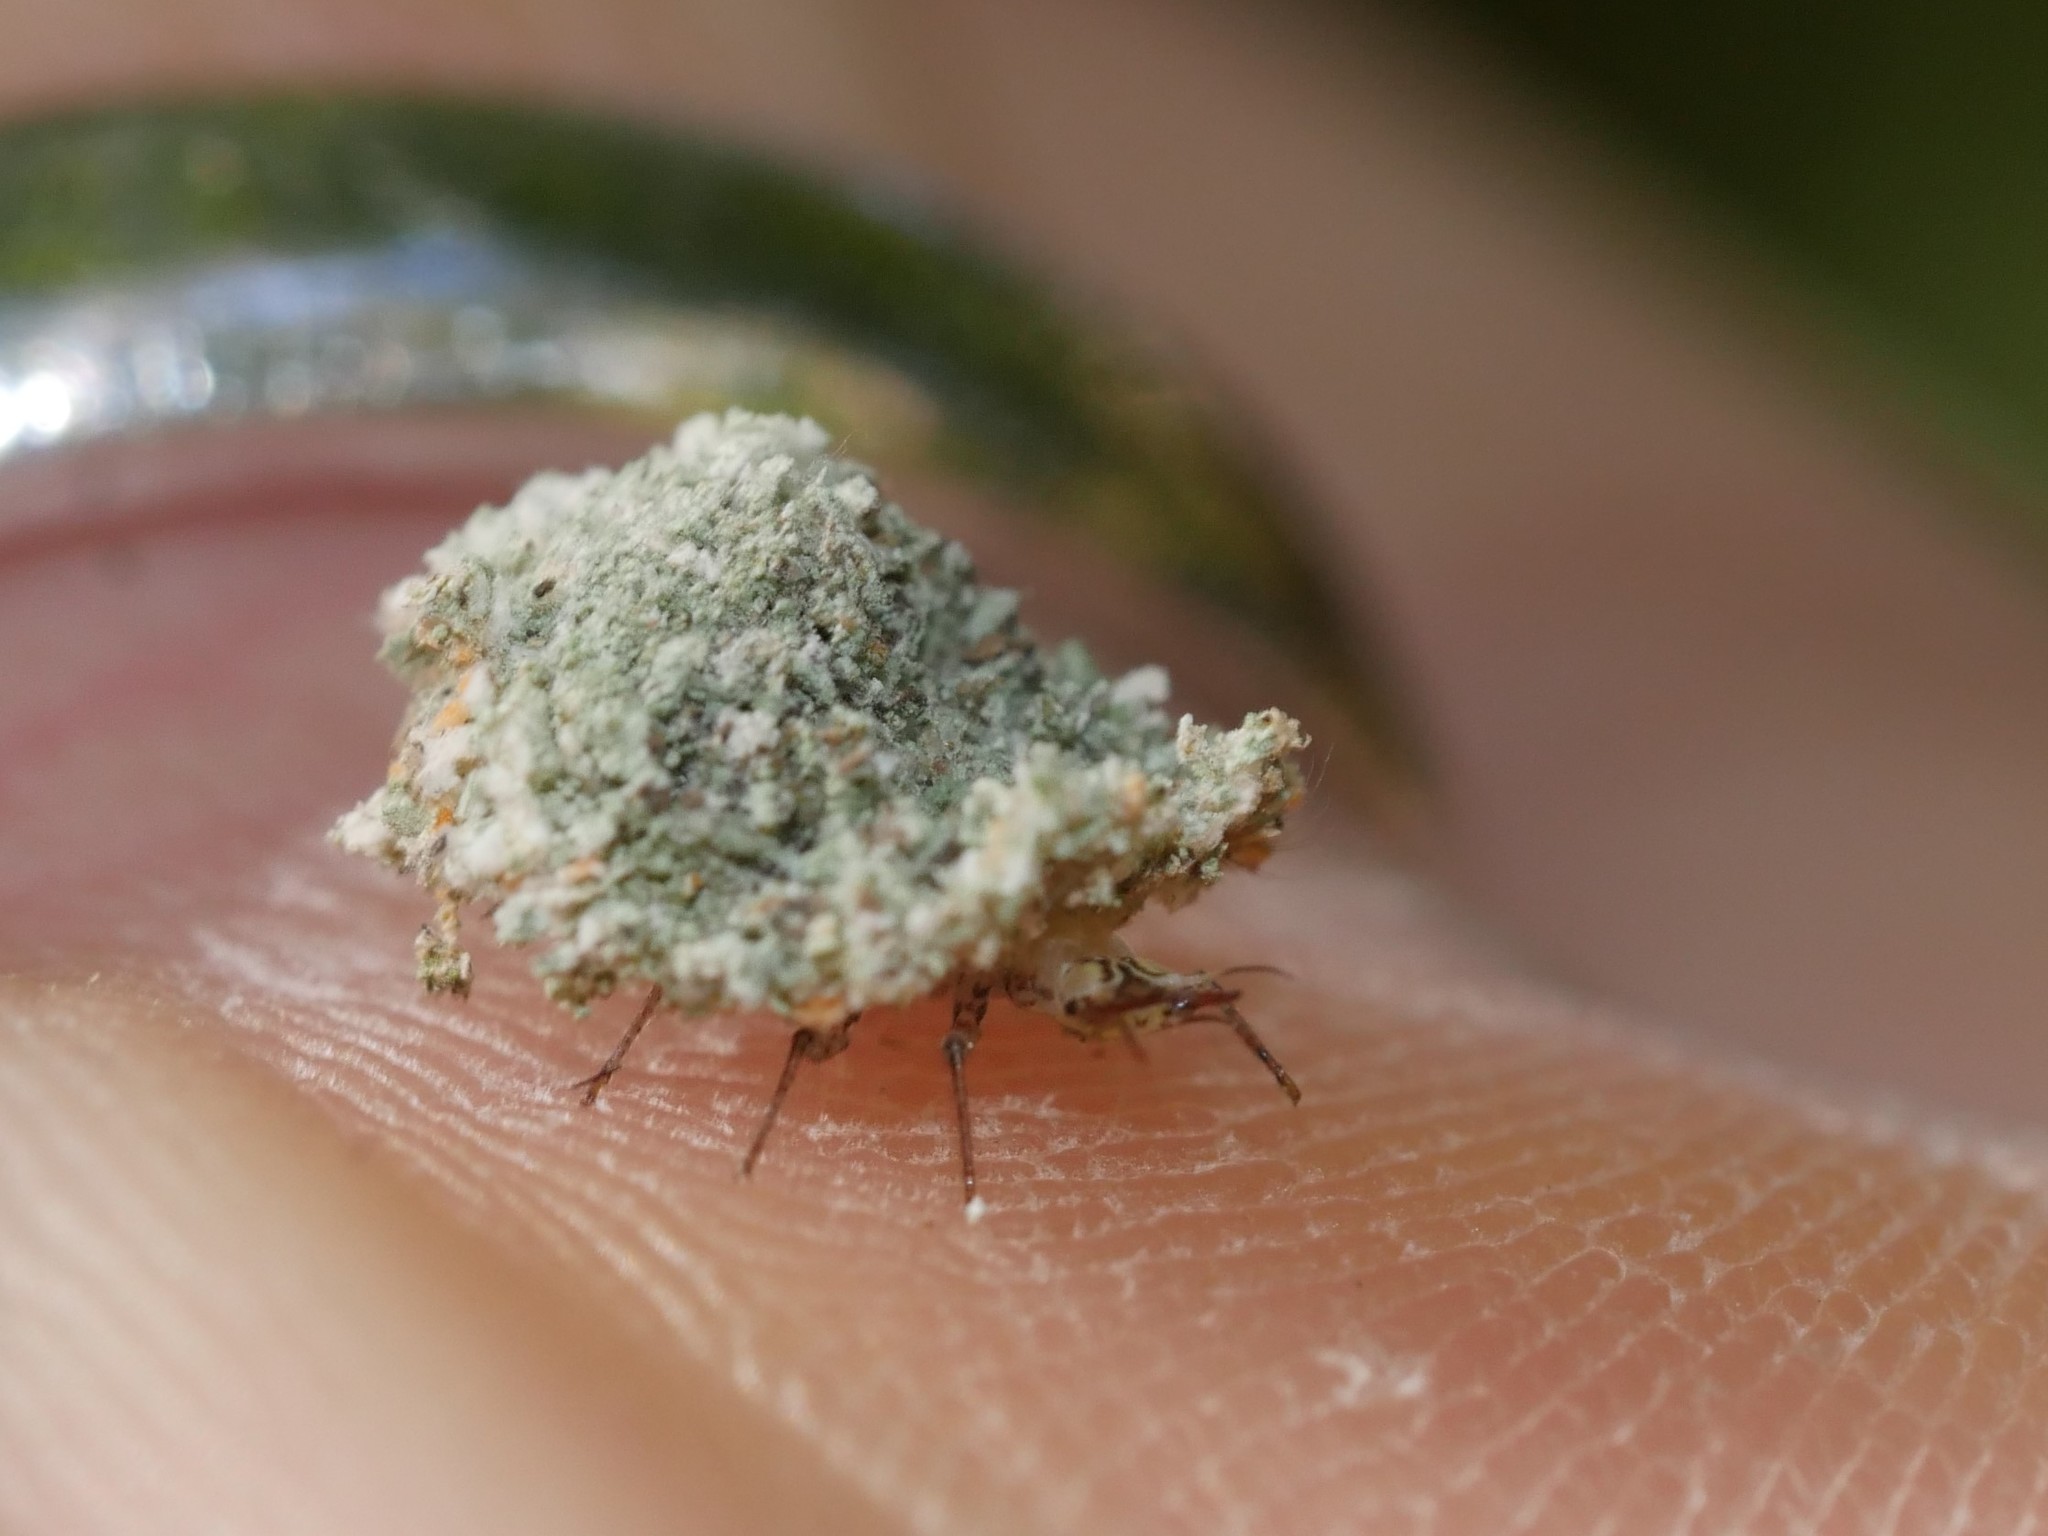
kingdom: Animalia
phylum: Arthropoda
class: Insecta
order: Neuroptera
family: Chrysopidae
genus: Leucochrysa
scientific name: Leucochrysa pavida
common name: Lichen-carrying green lacewing
